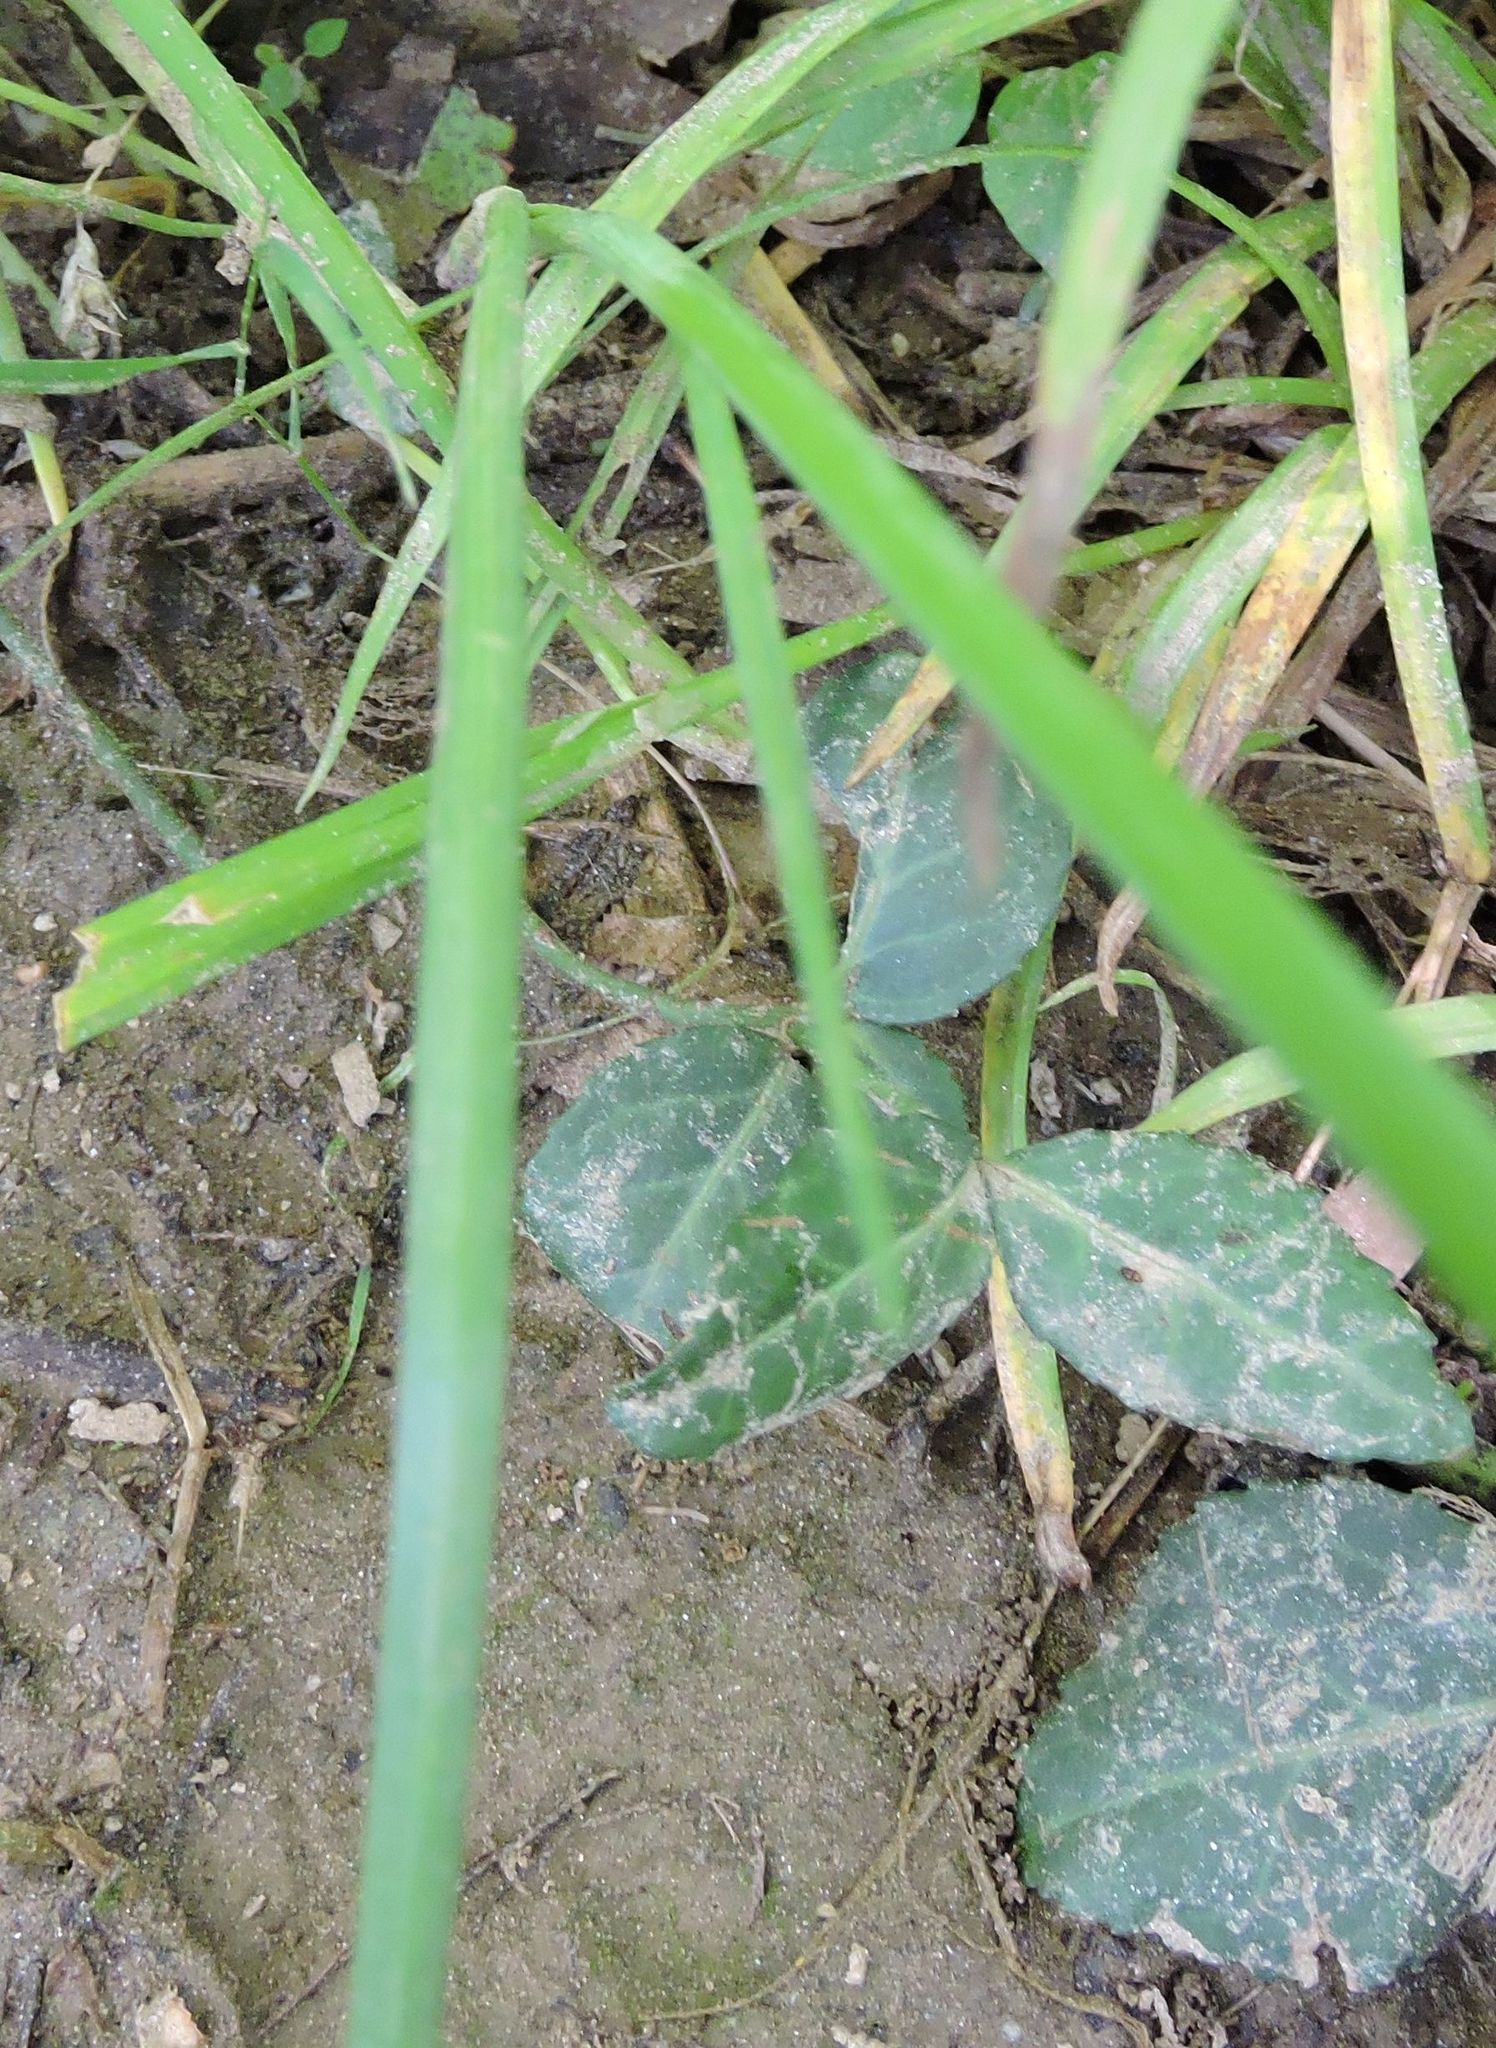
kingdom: Plantae
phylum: Tracheophyta
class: Liliopsida
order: Asparagales
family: Amaryllidaceae
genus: Allium
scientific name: Allium canadense
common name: Meadow garlic
